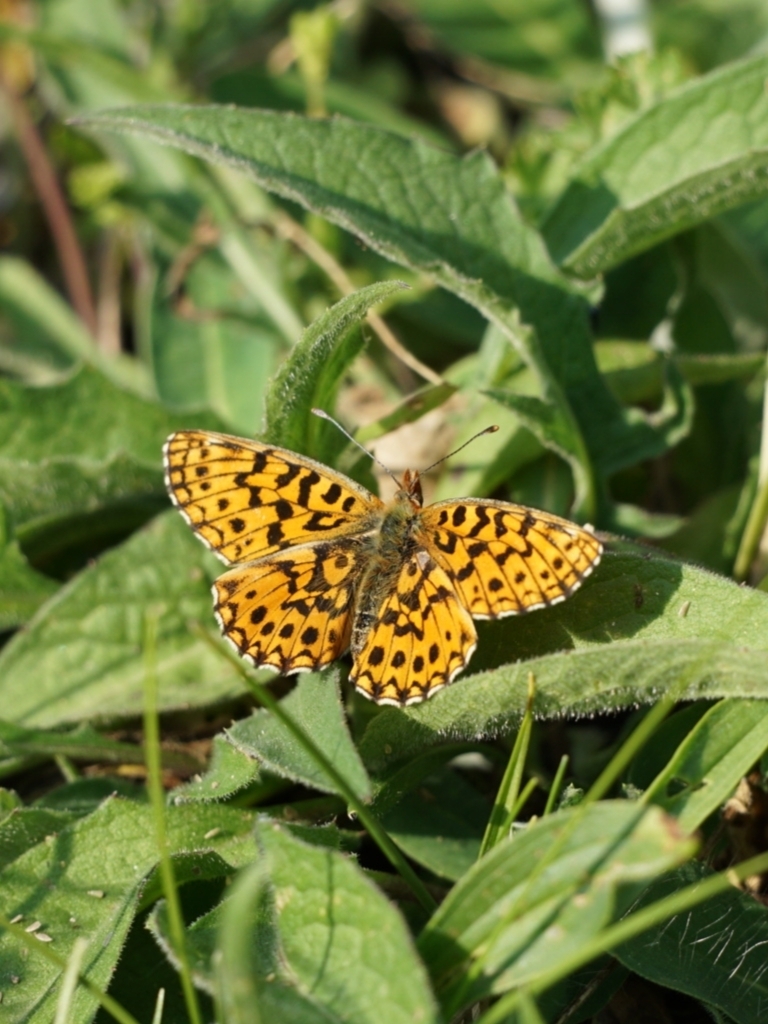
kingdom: Animalia
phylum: Arthropoda
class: Insecta
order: Lepidoptera
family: Nymphalidae
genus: Boloria
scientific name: Boloria dia
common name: Weaver's fritillary
